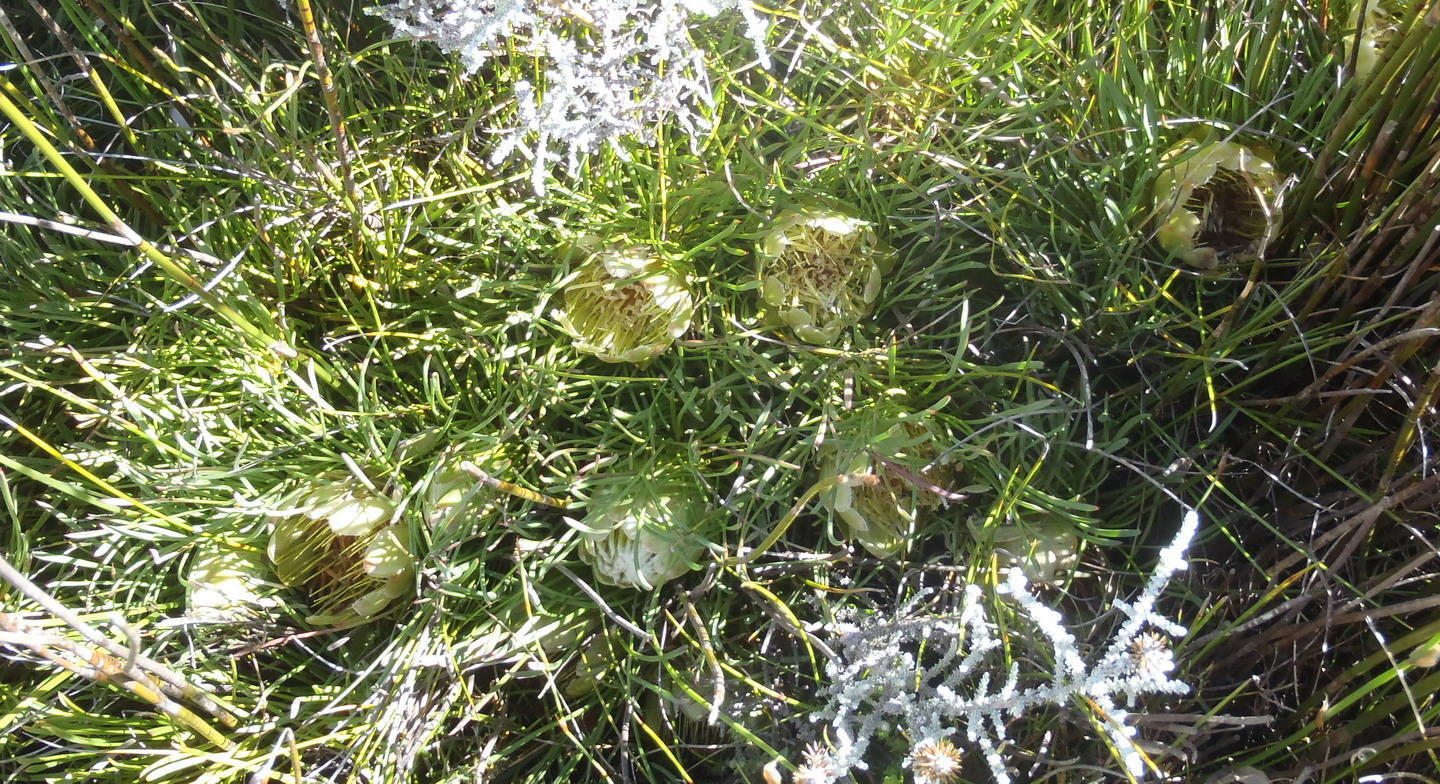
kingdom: Plantae
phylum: Tracheophyta
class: Magnoliopsida
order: Proteales
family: Proteaceae
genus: Protea
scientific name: Protea montana
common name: Swartberg sugarbush
